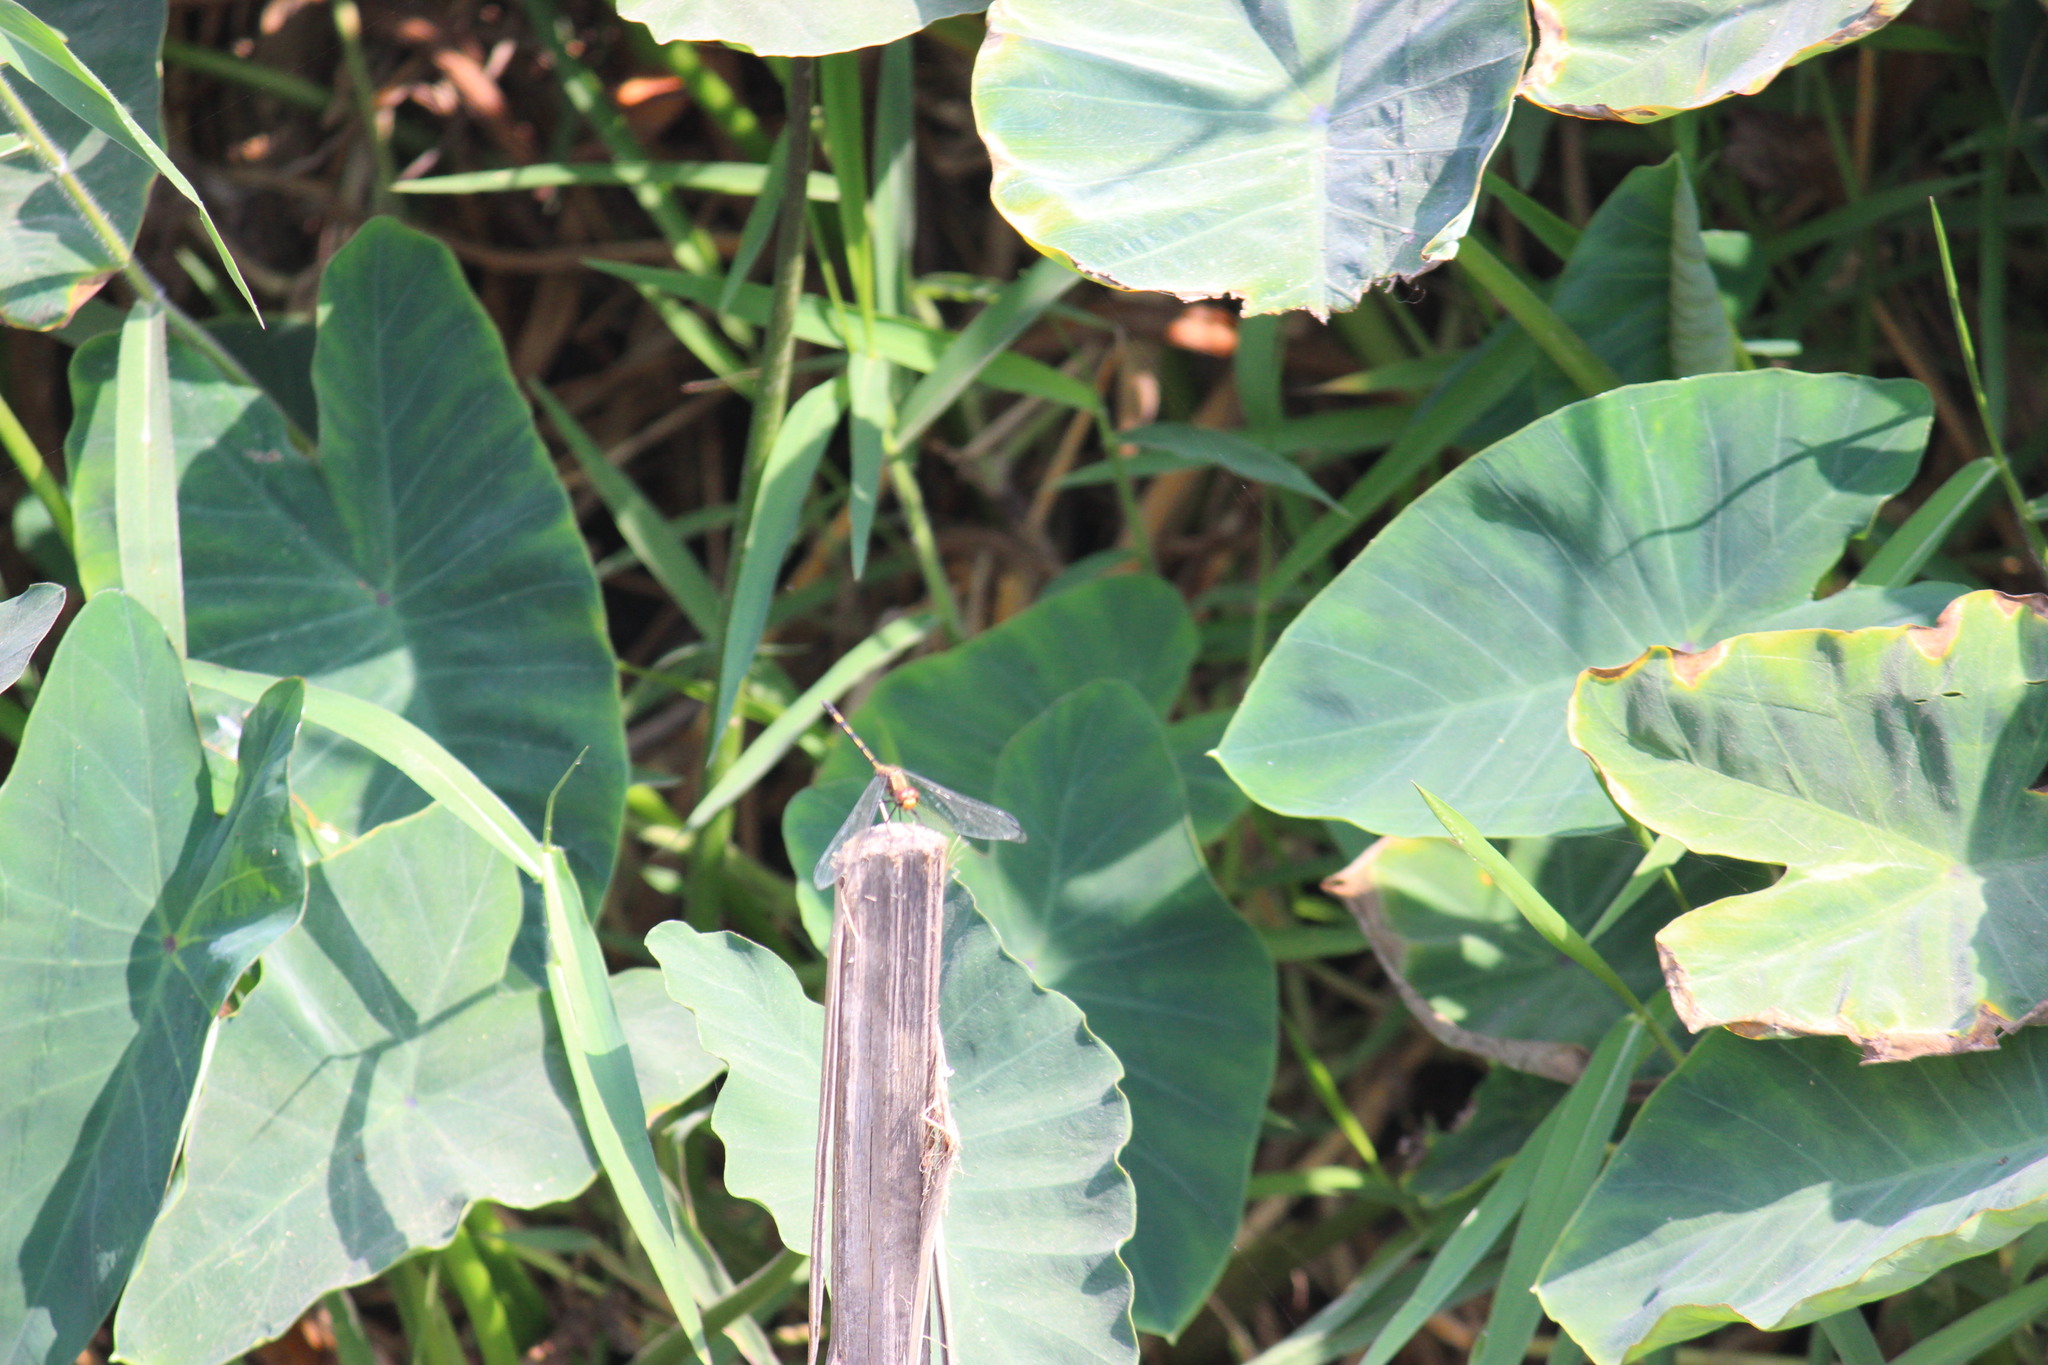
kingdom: Animalia
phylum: Arthropoda
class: Insecta
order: Odonata
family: Libellulidae
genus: Dythemis
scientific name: Dythemis sterilis
